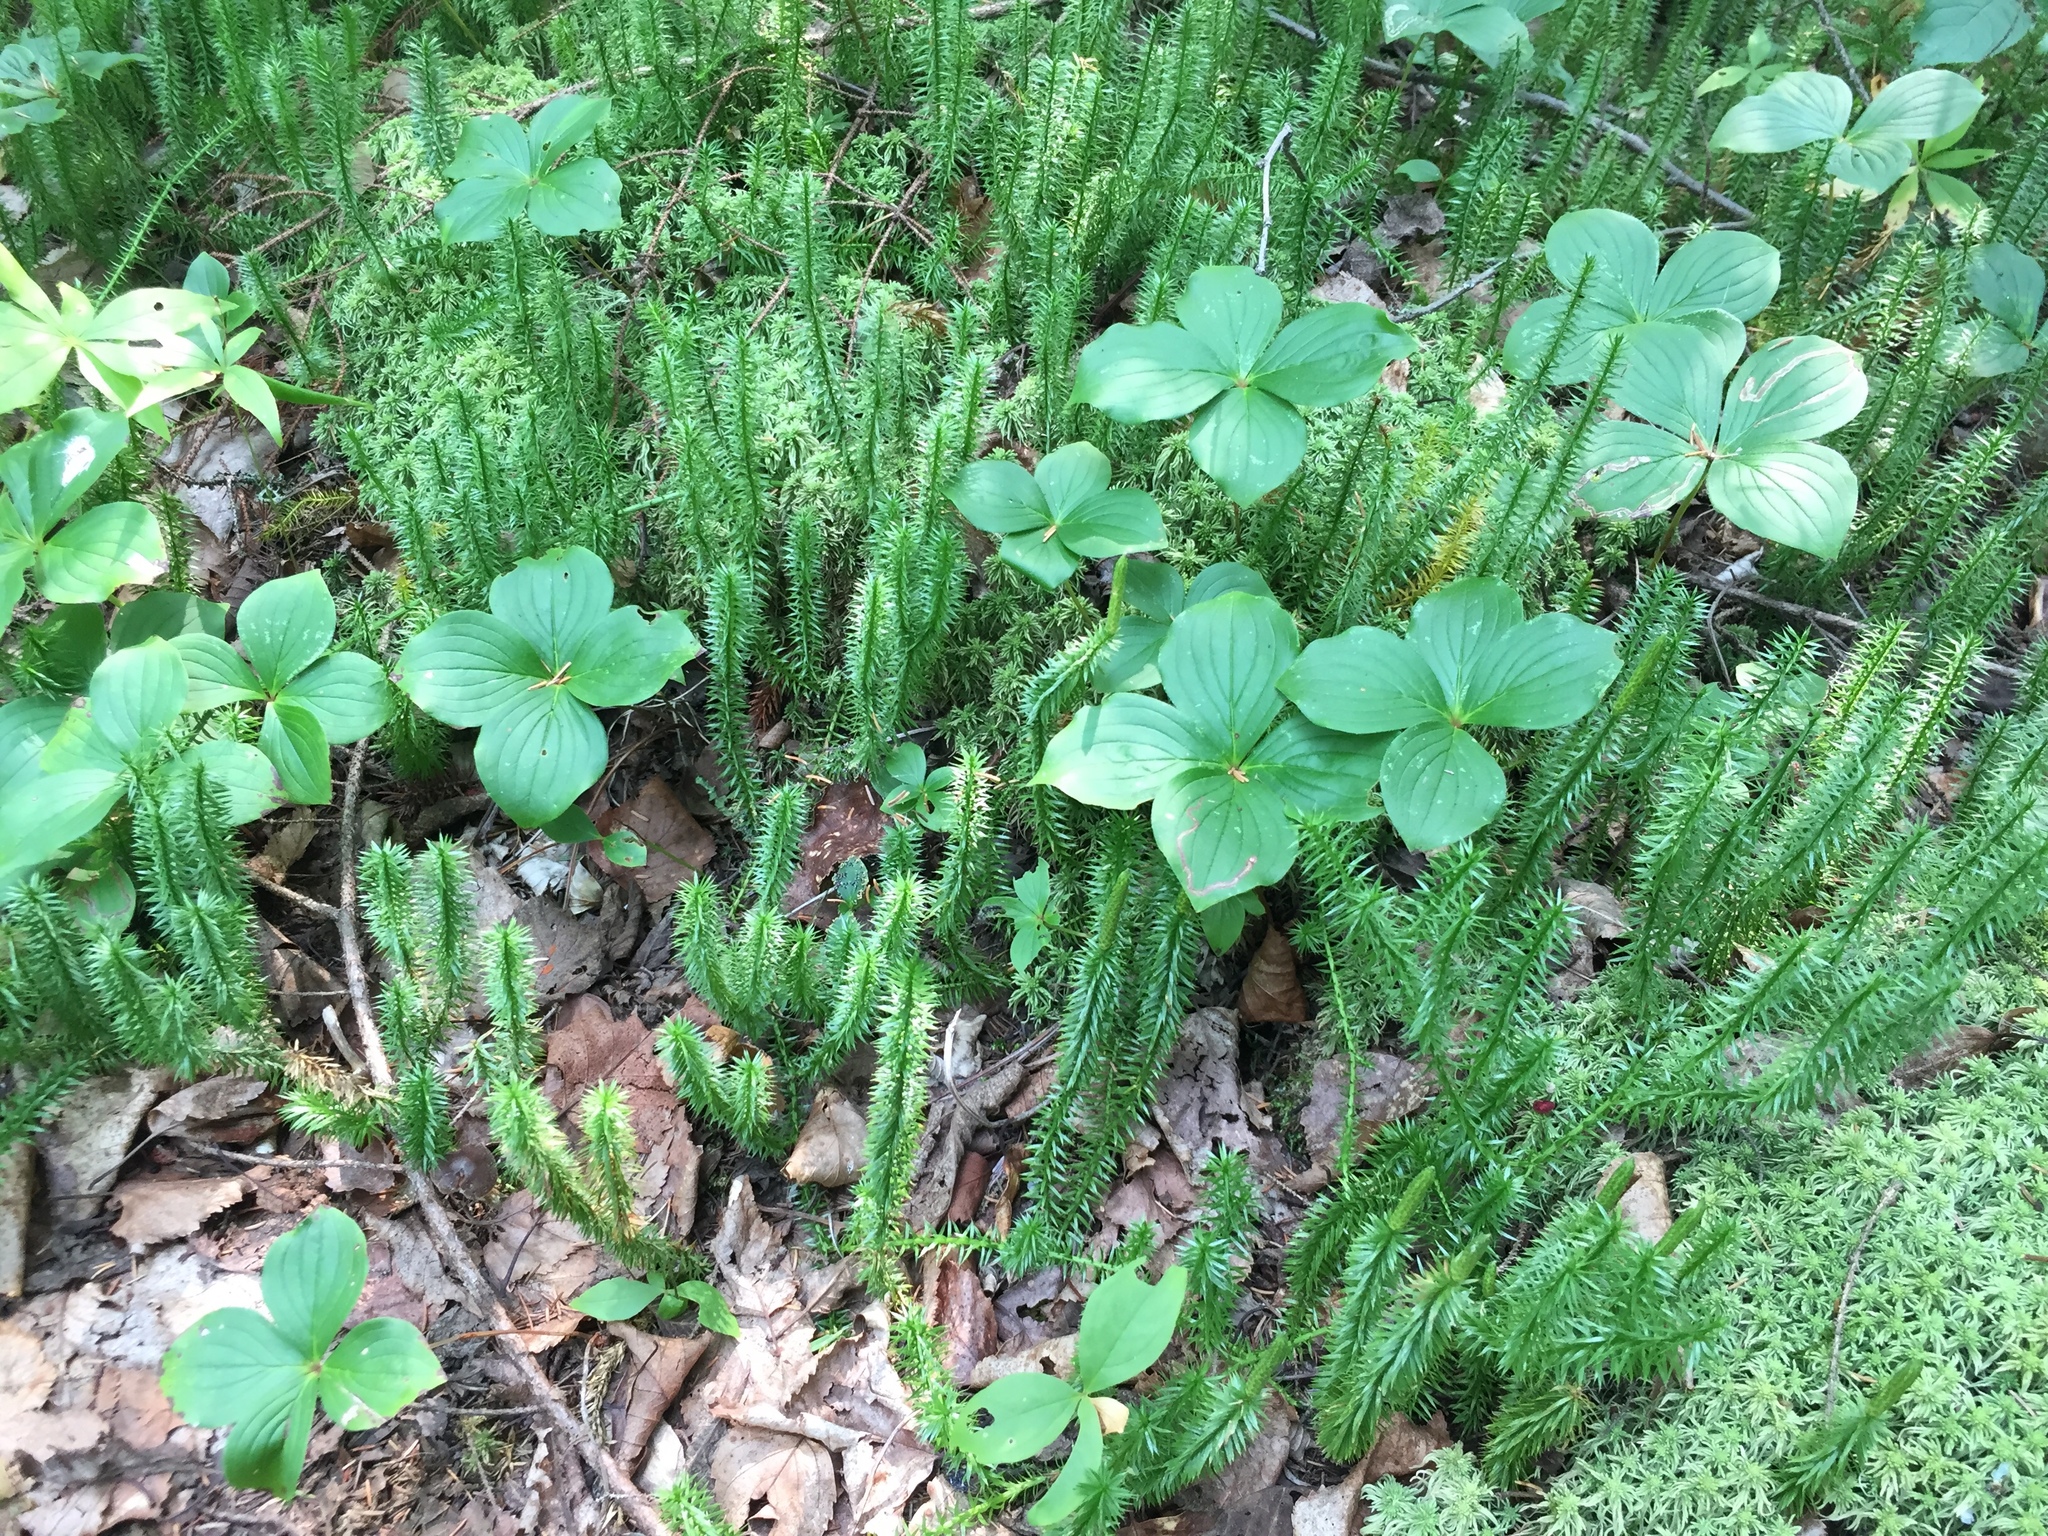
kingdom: Plantae
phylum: Tracheophyta
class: Lycopodiopsida
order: Lycopodiales
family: Lycopodiaceae
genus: Spinulum
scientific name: Spinulum annotinum
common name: Interrupted club-moss
